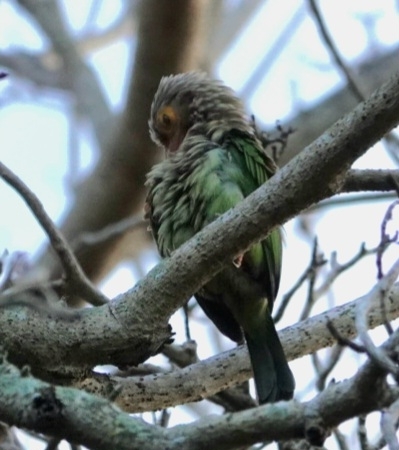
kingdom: Animalia
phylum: Chordata
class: Aves
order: Piciformes
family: Megalaimidae
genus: Psilopogon
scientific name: Psilopogon lineatus
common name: Lineated barbet
